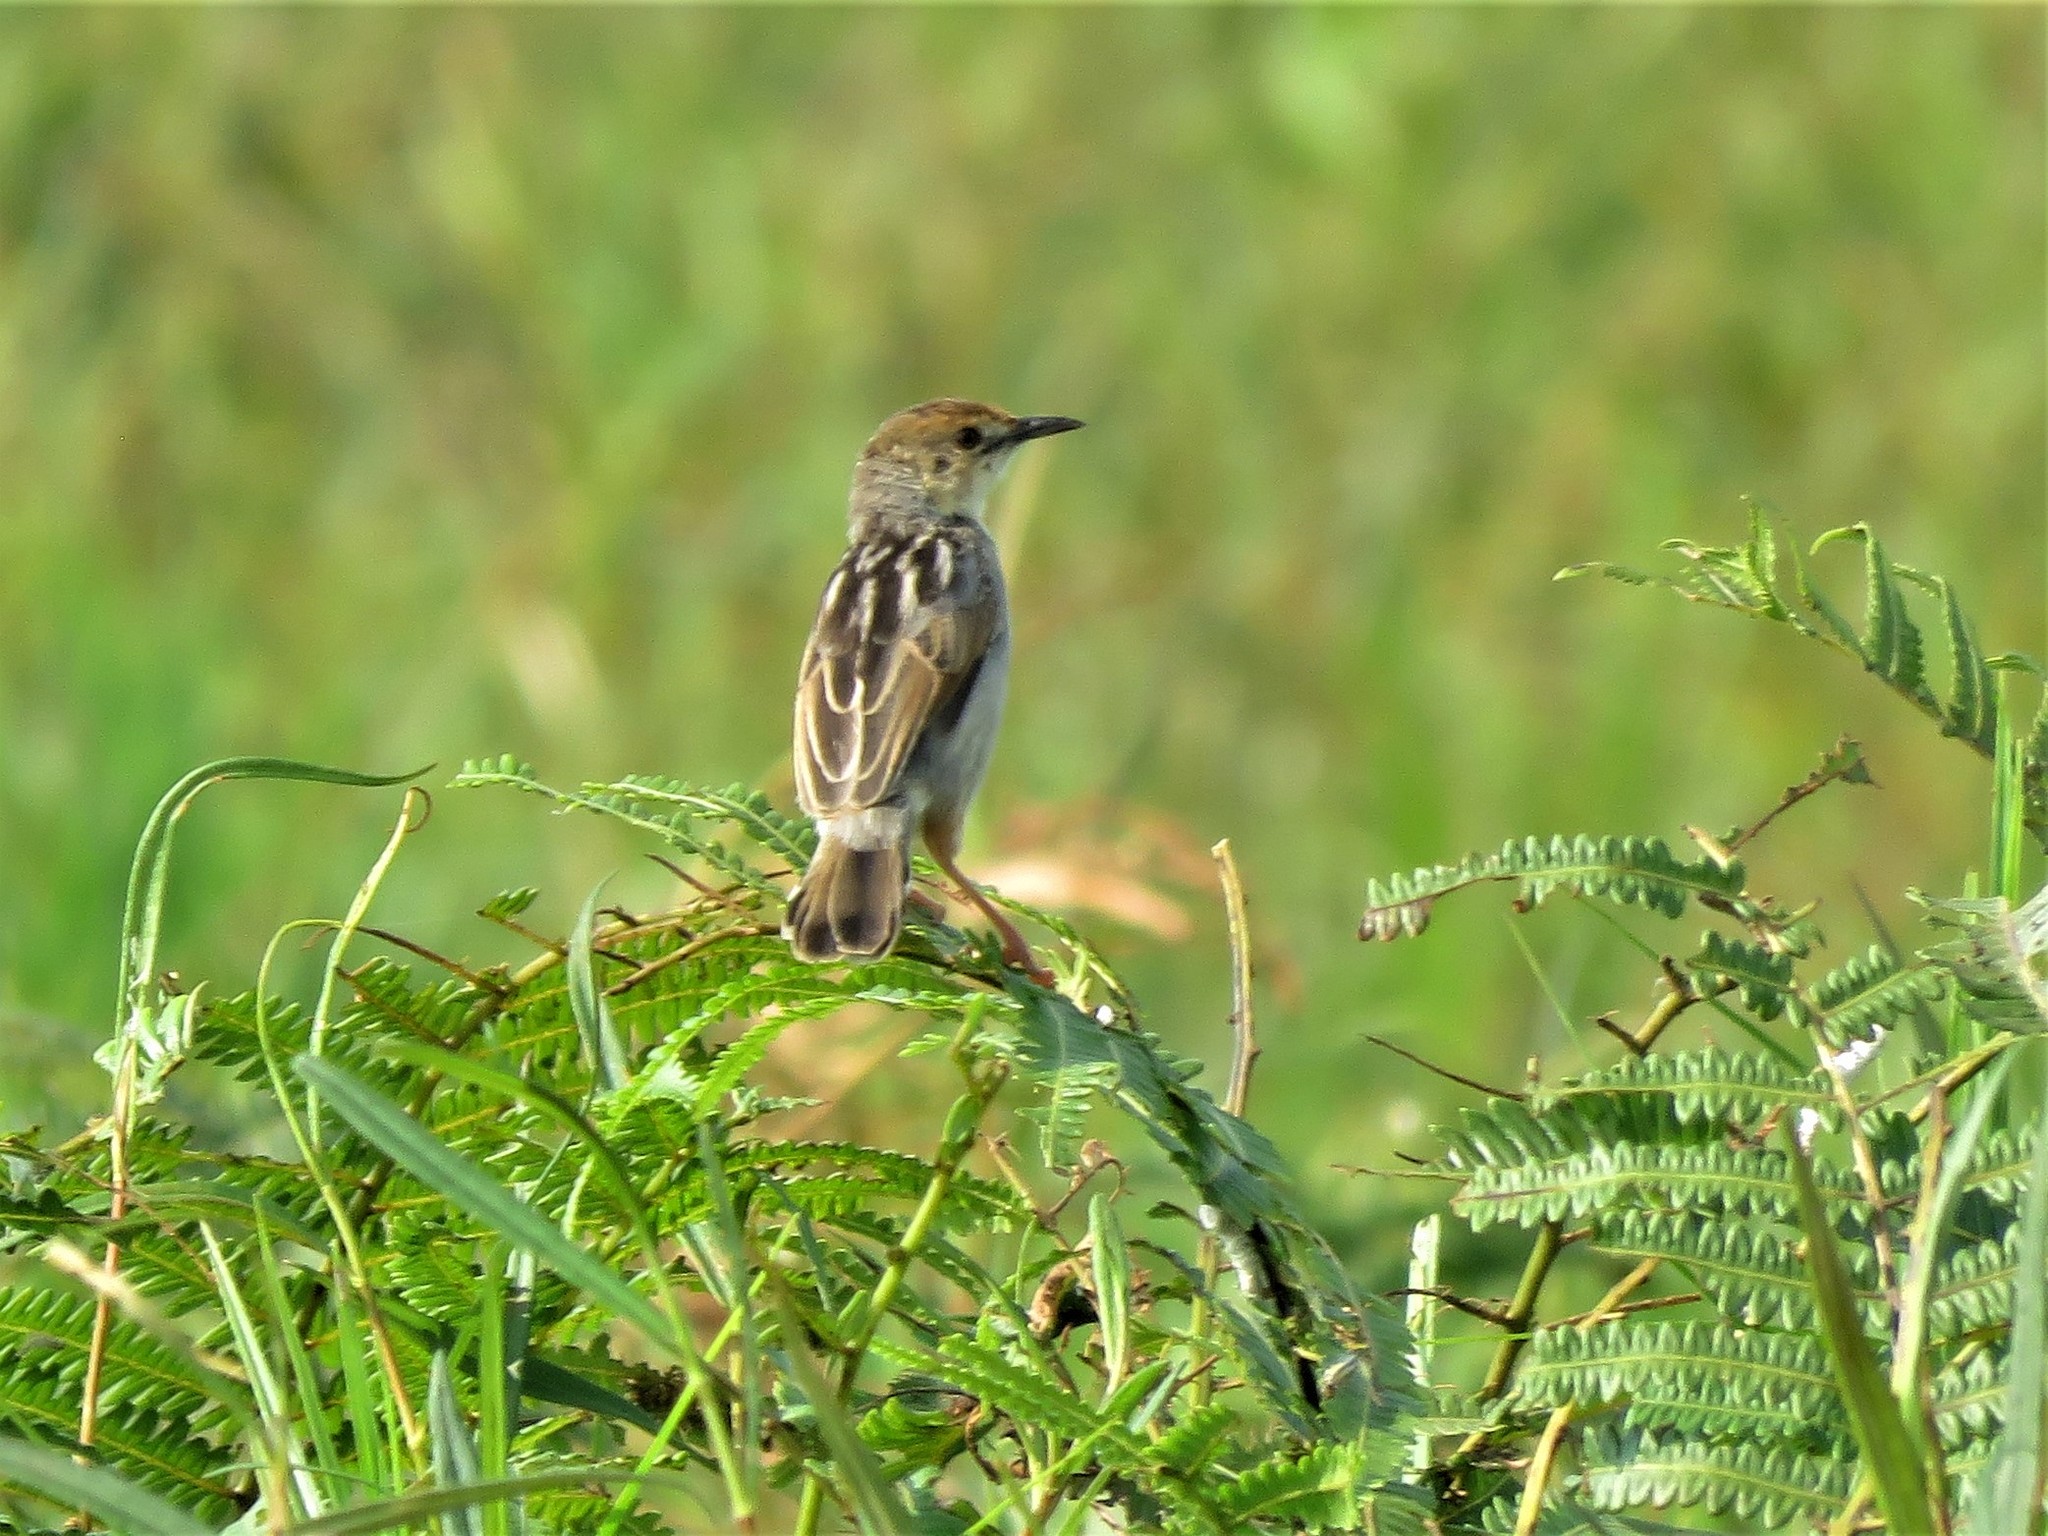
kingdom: Animalia
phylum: Chordata
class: Aves
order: Passeriformes
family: Cisticolidae
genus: Cisticola
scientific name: Cisticola marginatus
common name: Winding cisticola
